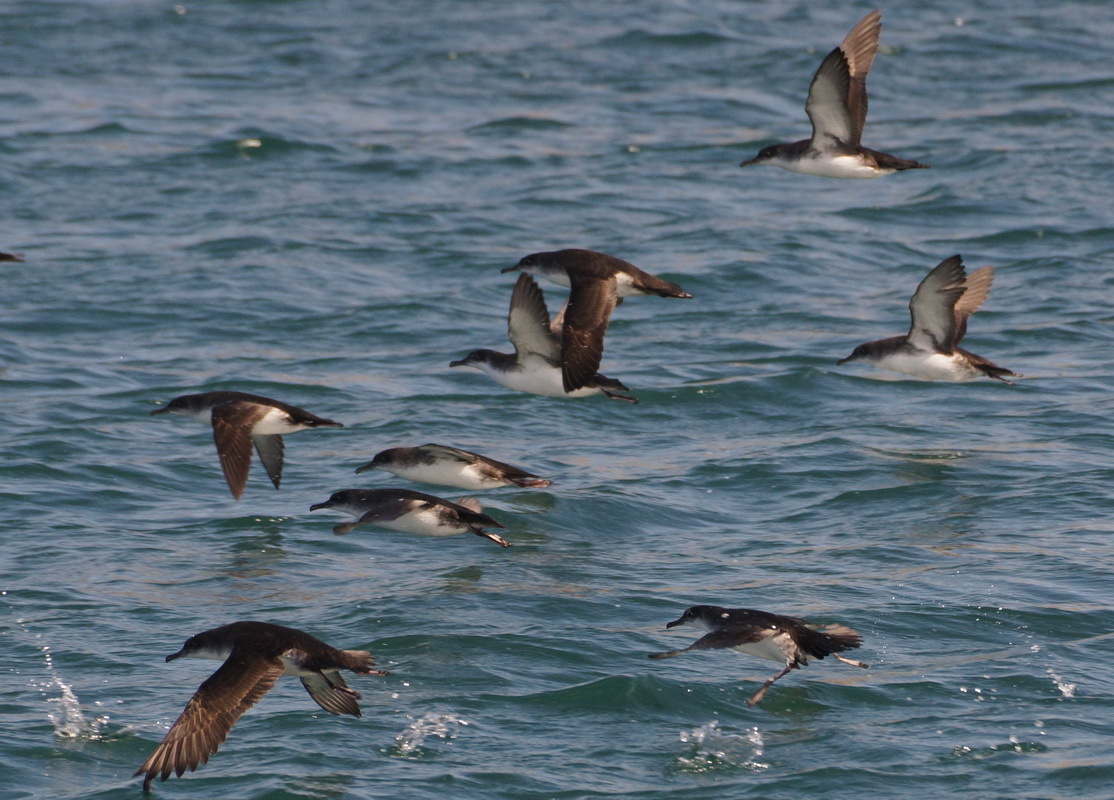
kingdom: Animalia
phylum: Chordata
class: Aves
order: Procellariiformes
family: Procellariidae
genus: Puffinus
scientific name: Puffinus yelkouan
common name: Yelkouan shearwater
